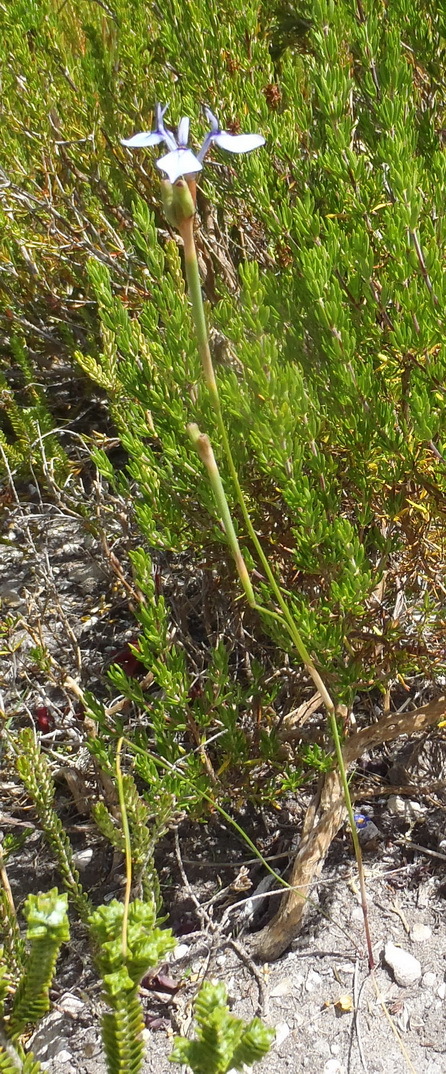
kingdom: Plantae
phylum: Tracheophyta
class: Liliopsida
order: Asparagales
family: Iridaceae
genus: Moraea
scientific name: Moraea tripetala
